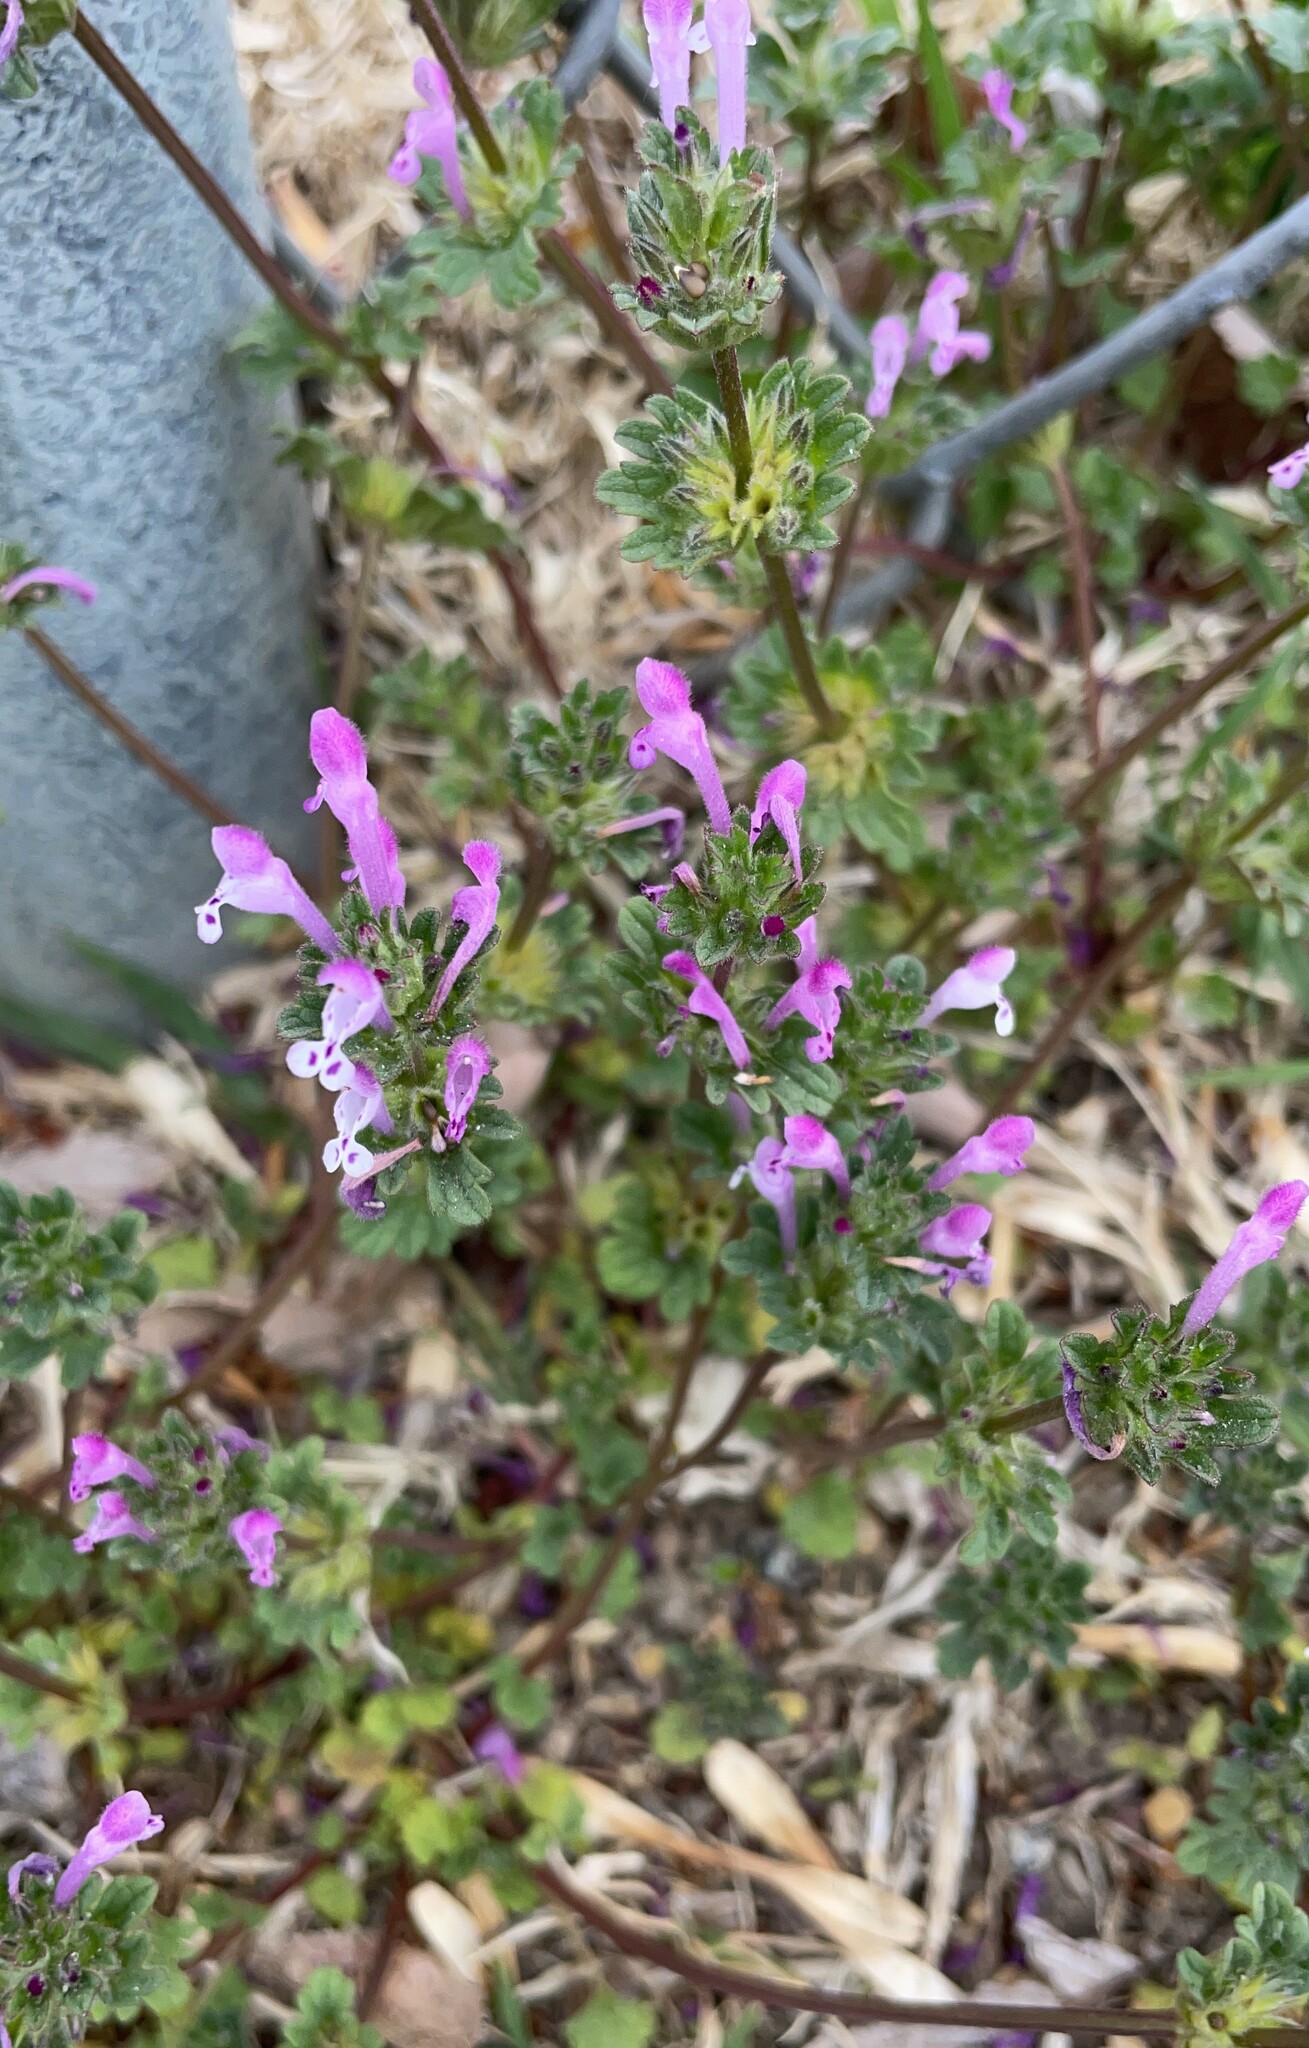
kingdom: Plantae
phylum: Tracheophyta
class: Magnoliopsida
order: Lamiales
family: Lamiaceae
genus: Lamium
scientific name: Lamium amplexicaule
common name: Henbit dead-nettle
